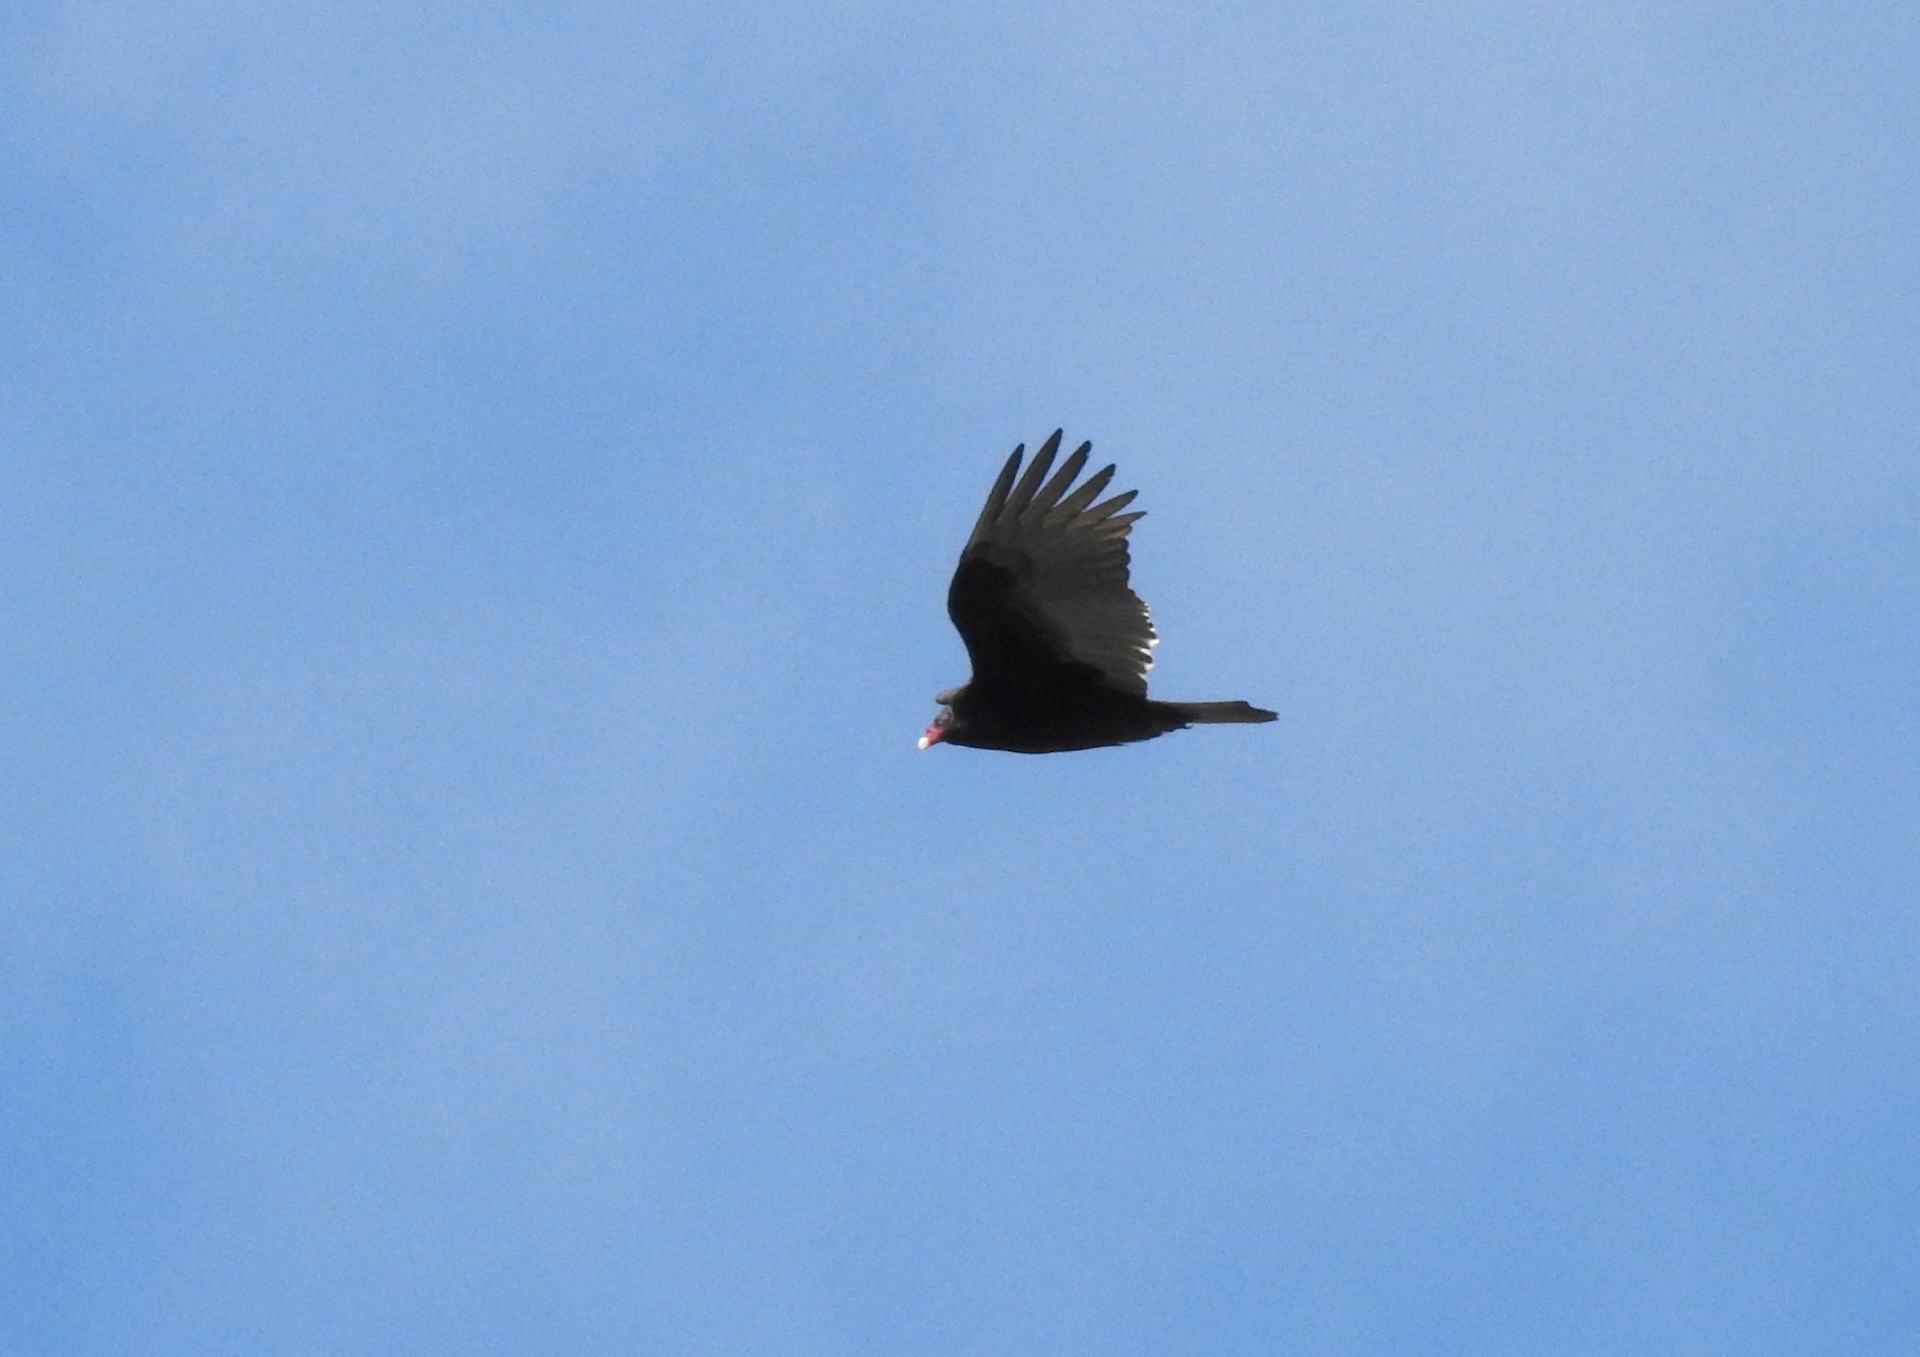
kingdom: Animalia
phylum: Chordata
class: Aves
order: Accipitriformes
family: Cathartidae
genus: Cathartes
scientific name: Cathartes aura
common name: Turkey vulture
